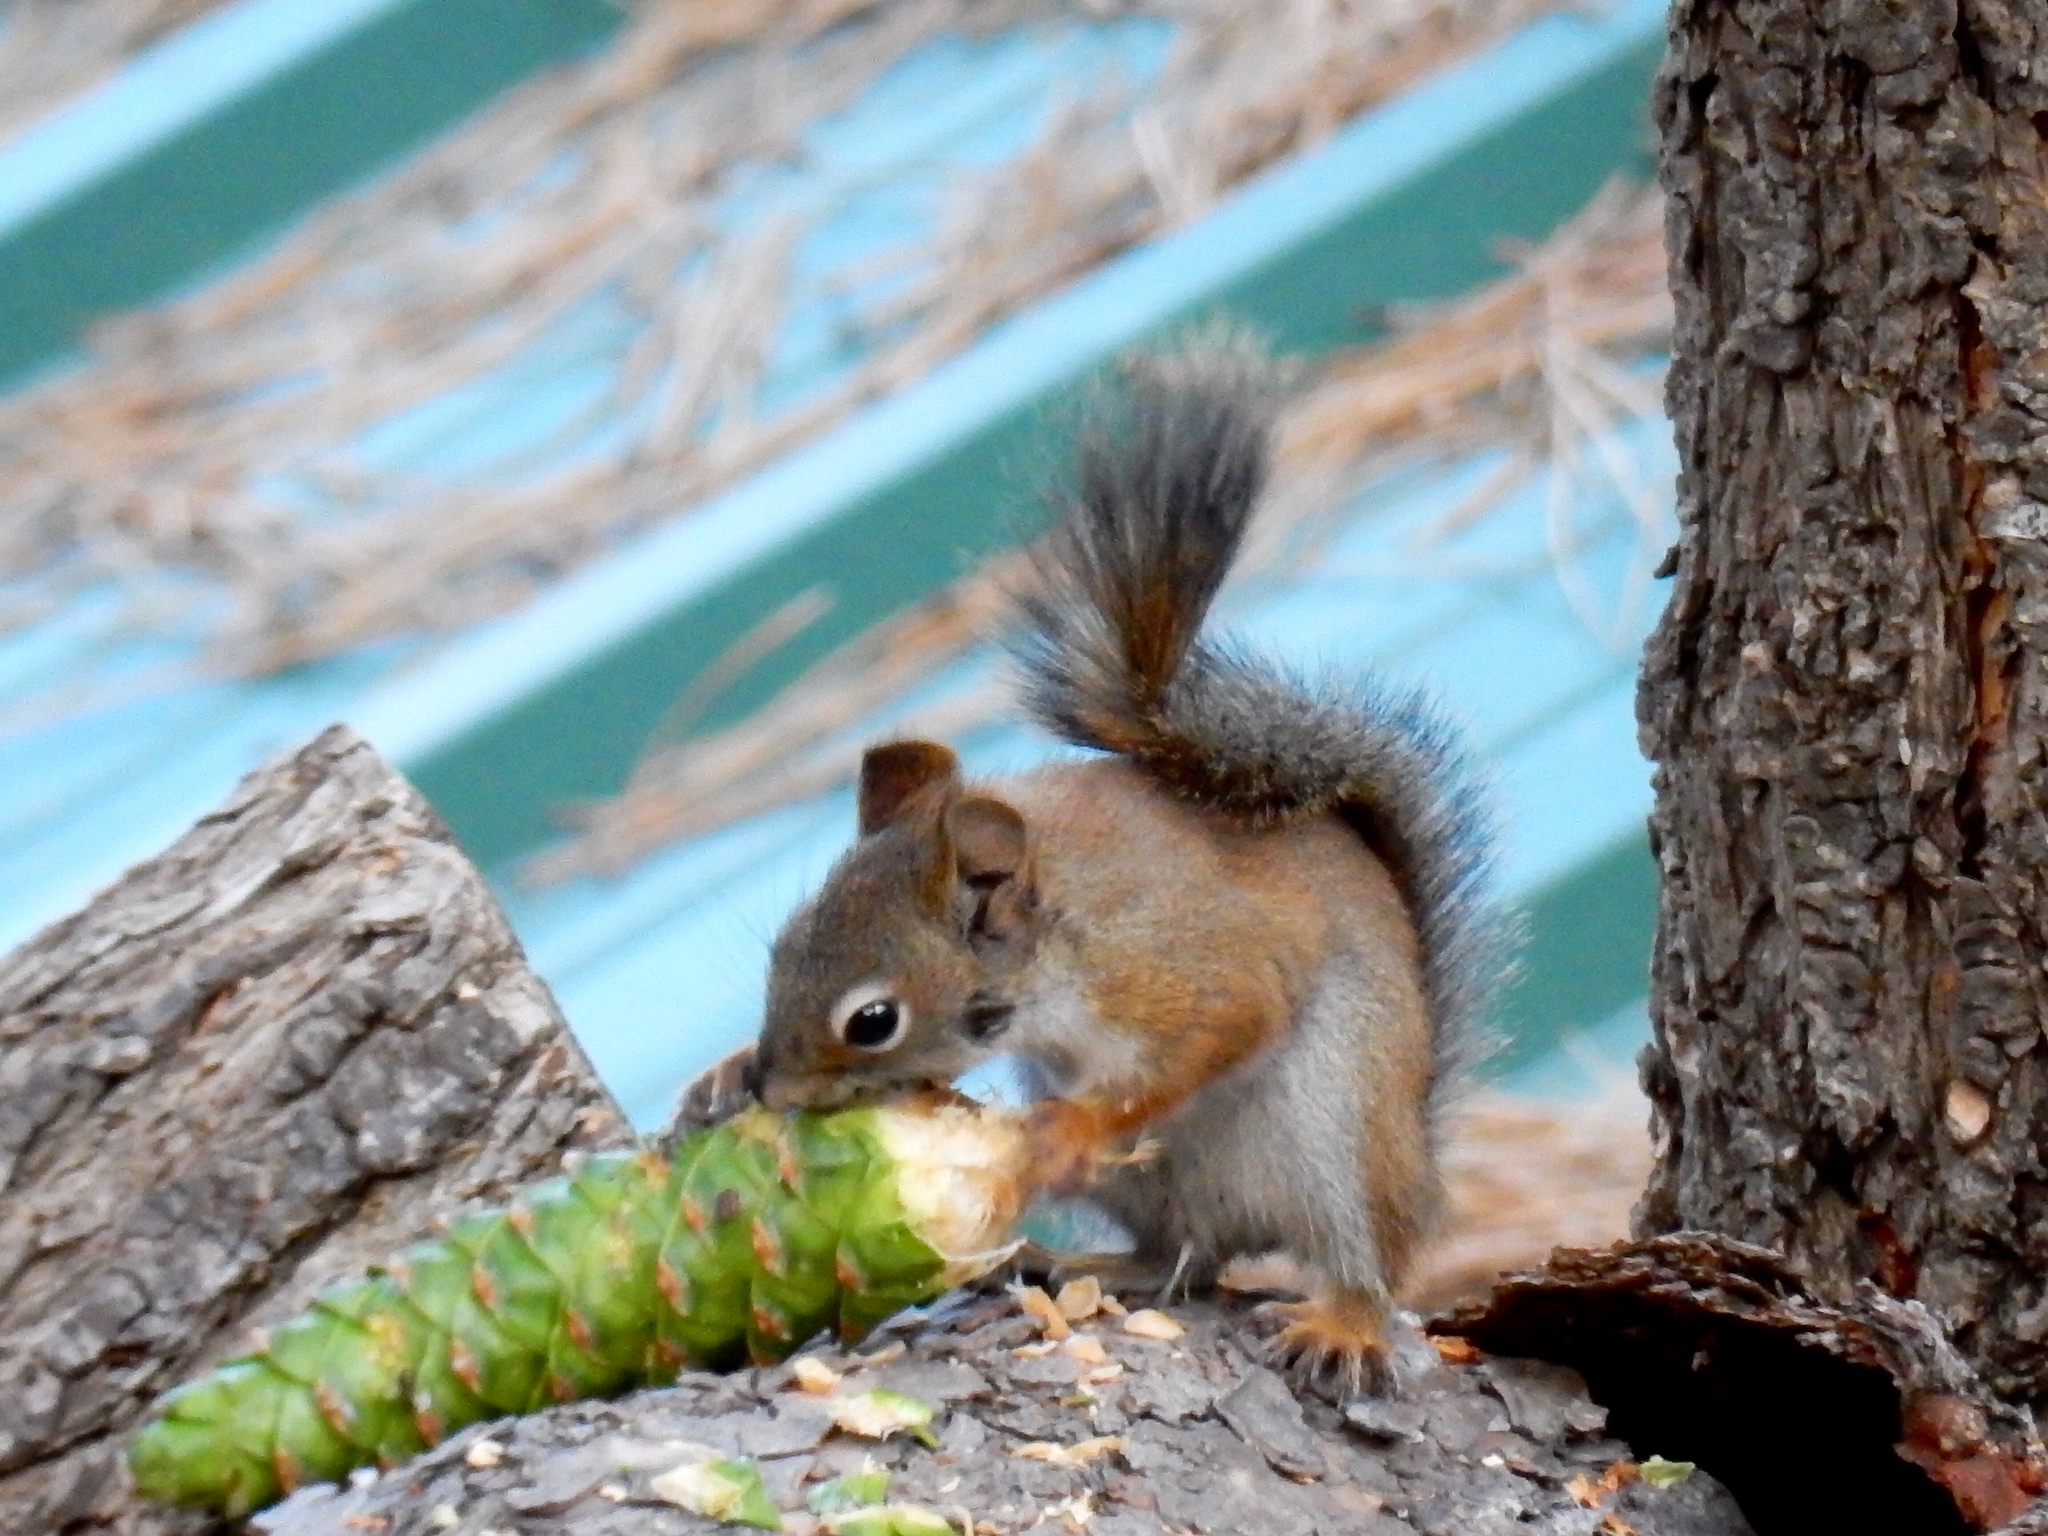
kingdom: Animalia
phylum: Chordata
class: Mammalia
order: Rodentia
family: Sciuridae
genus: Tamiasciurus
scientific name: Tamiasciurus hudsonicus
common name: Red squirrel
